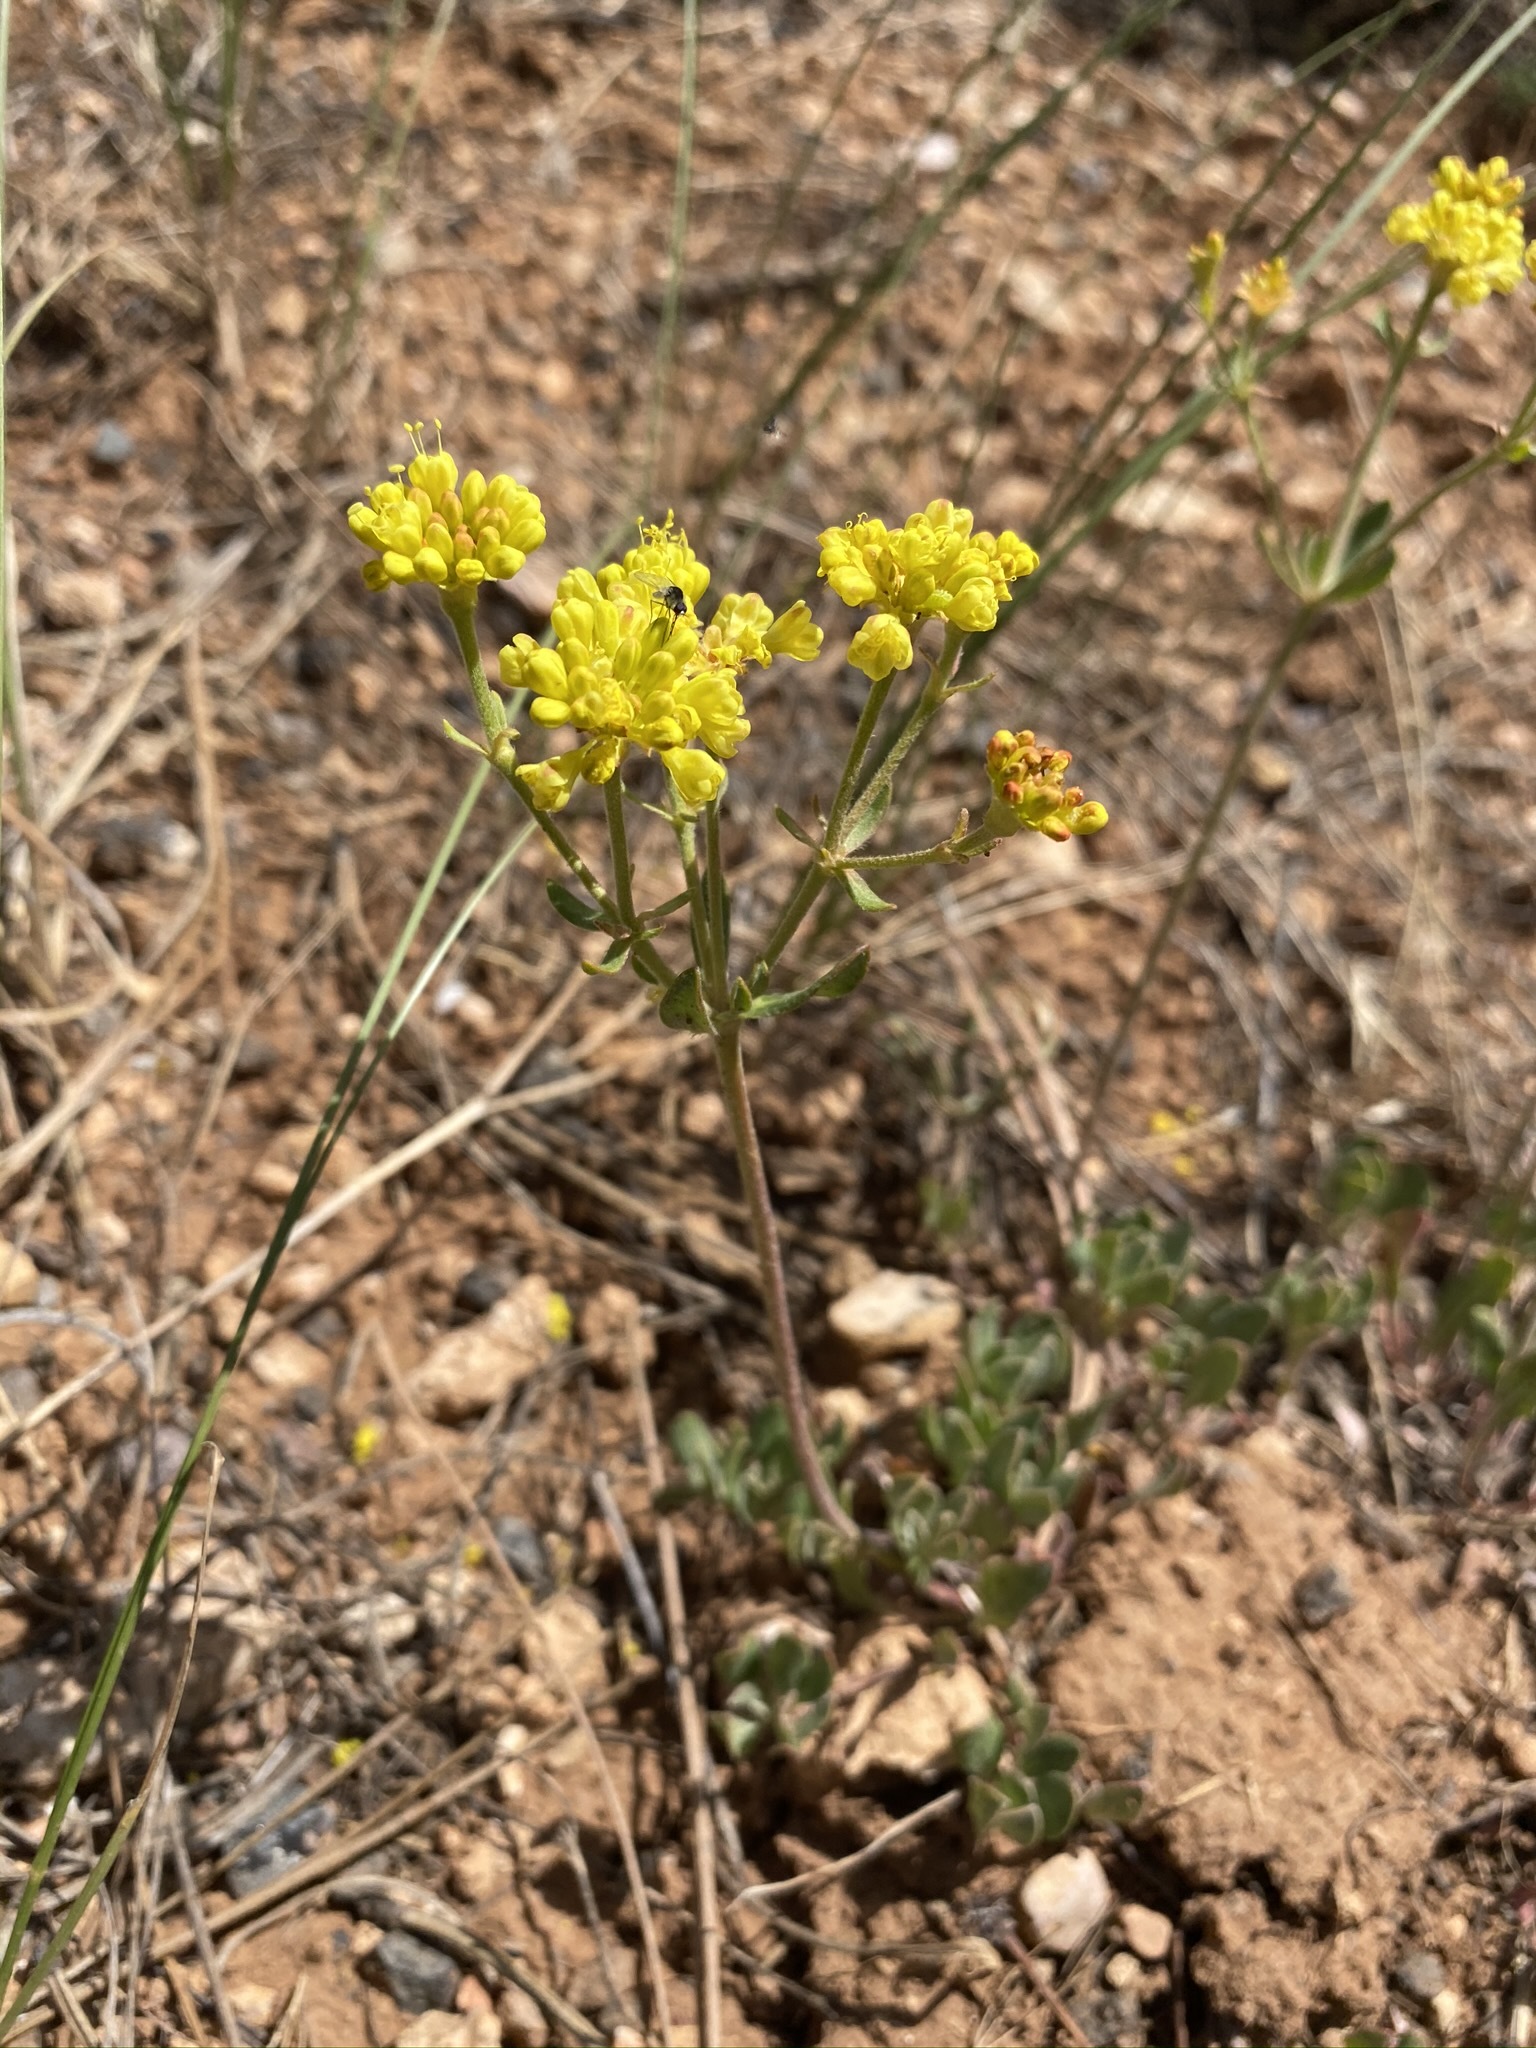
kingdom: Plantae
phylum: Tracheophyta
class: Magnoliopsida
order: Caryophyllales
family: Polygonaceae
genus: Eriogonum
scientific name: Eriogonum umbellatum
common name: Sulfur-buckwheat
